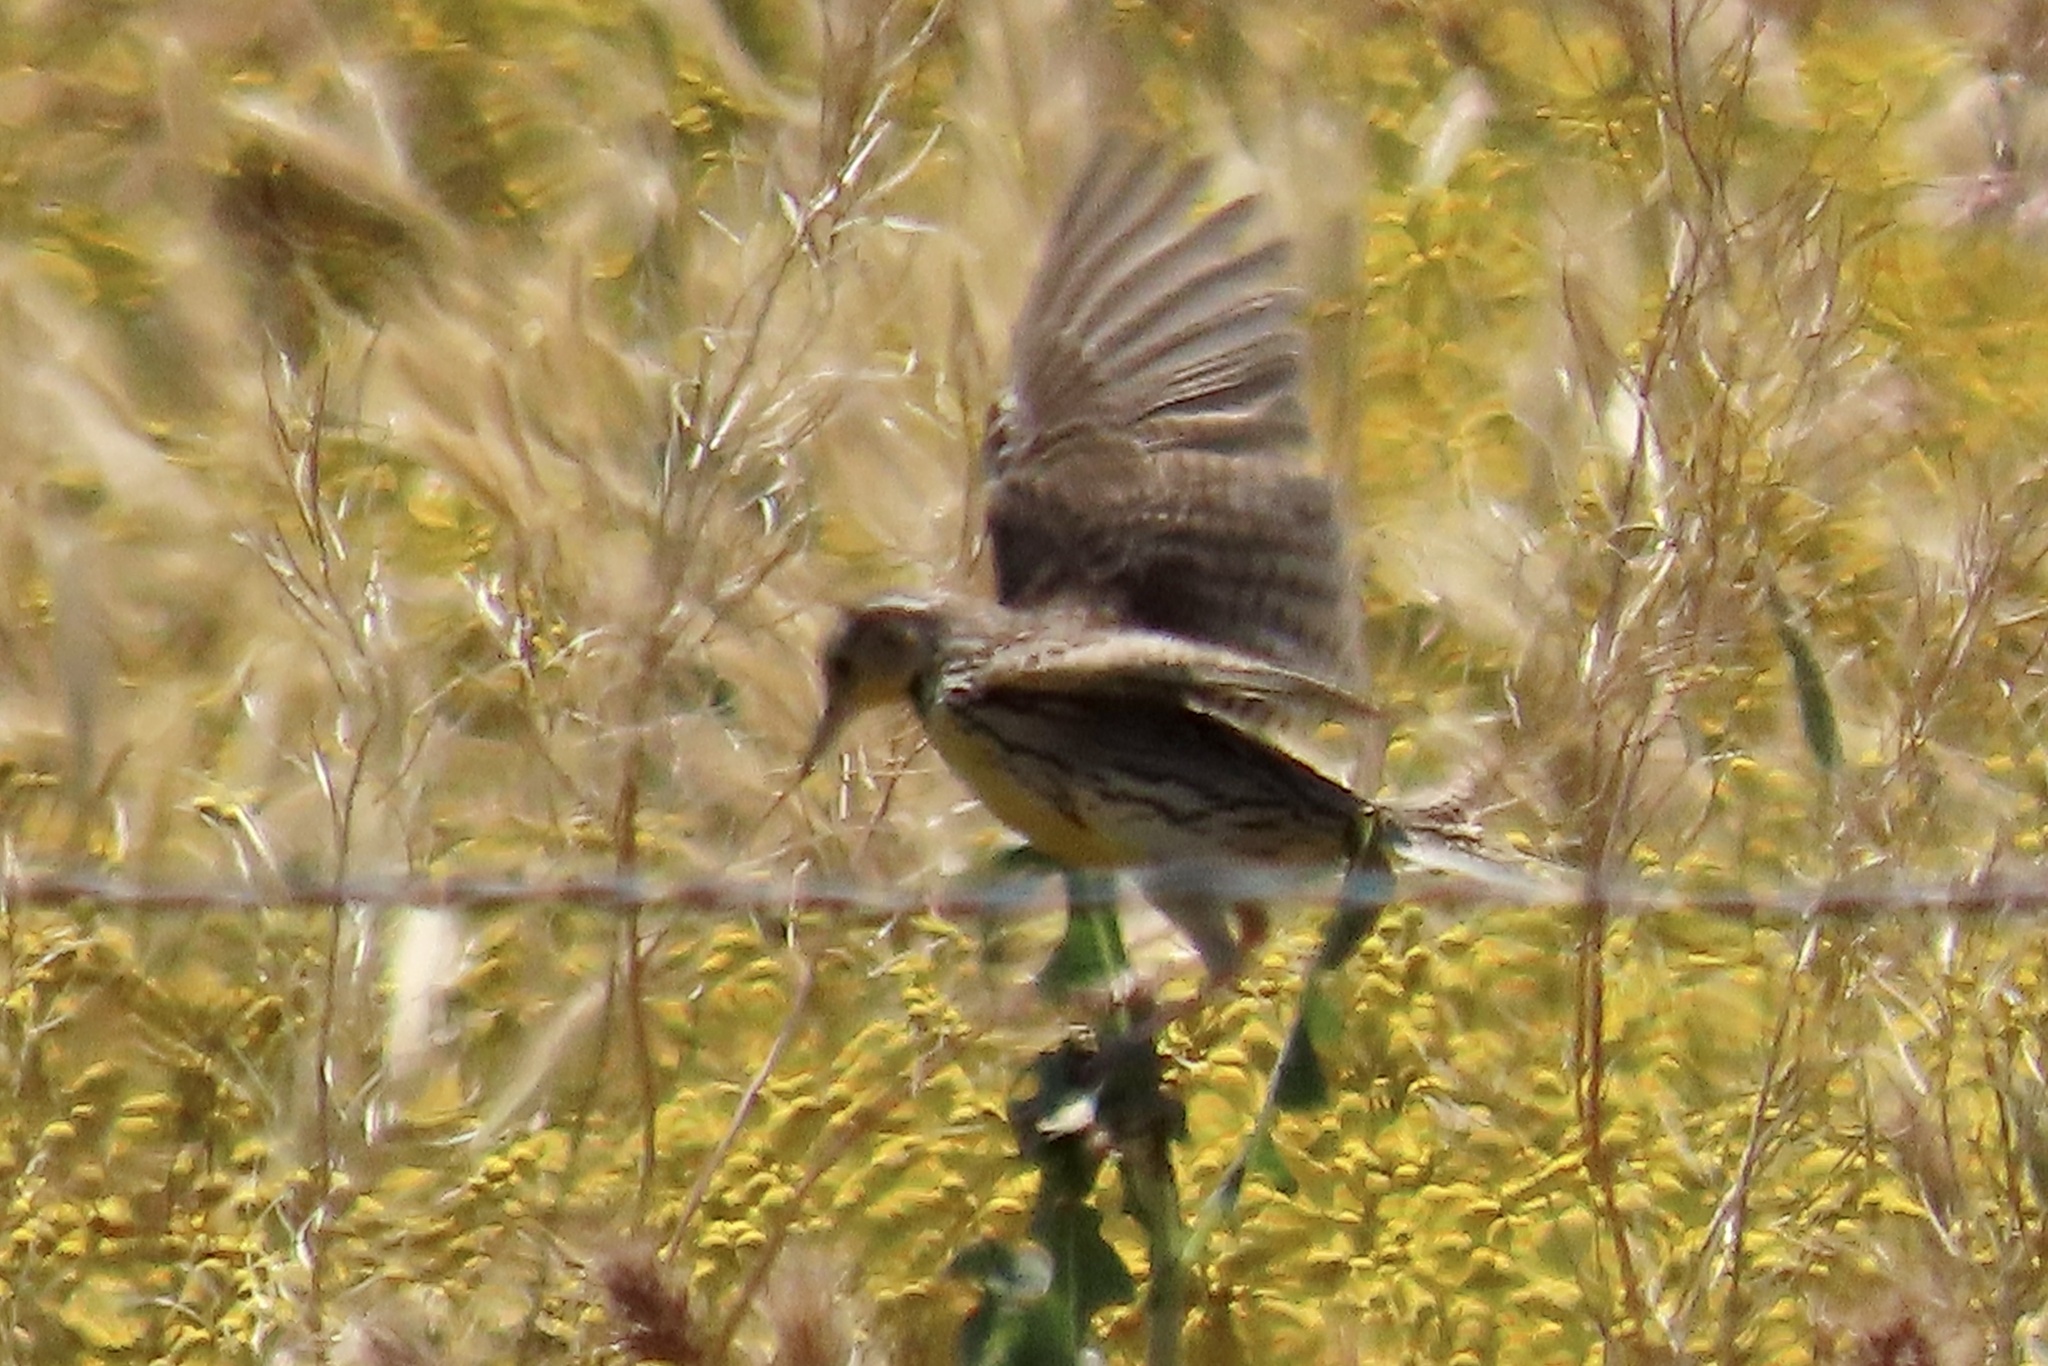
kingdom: Animalia
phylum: Chordata
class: Aves
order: Passeriformes
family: Icteridae
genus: Sturnella
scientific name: Sturnella neglecta
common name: Western meadowlark
